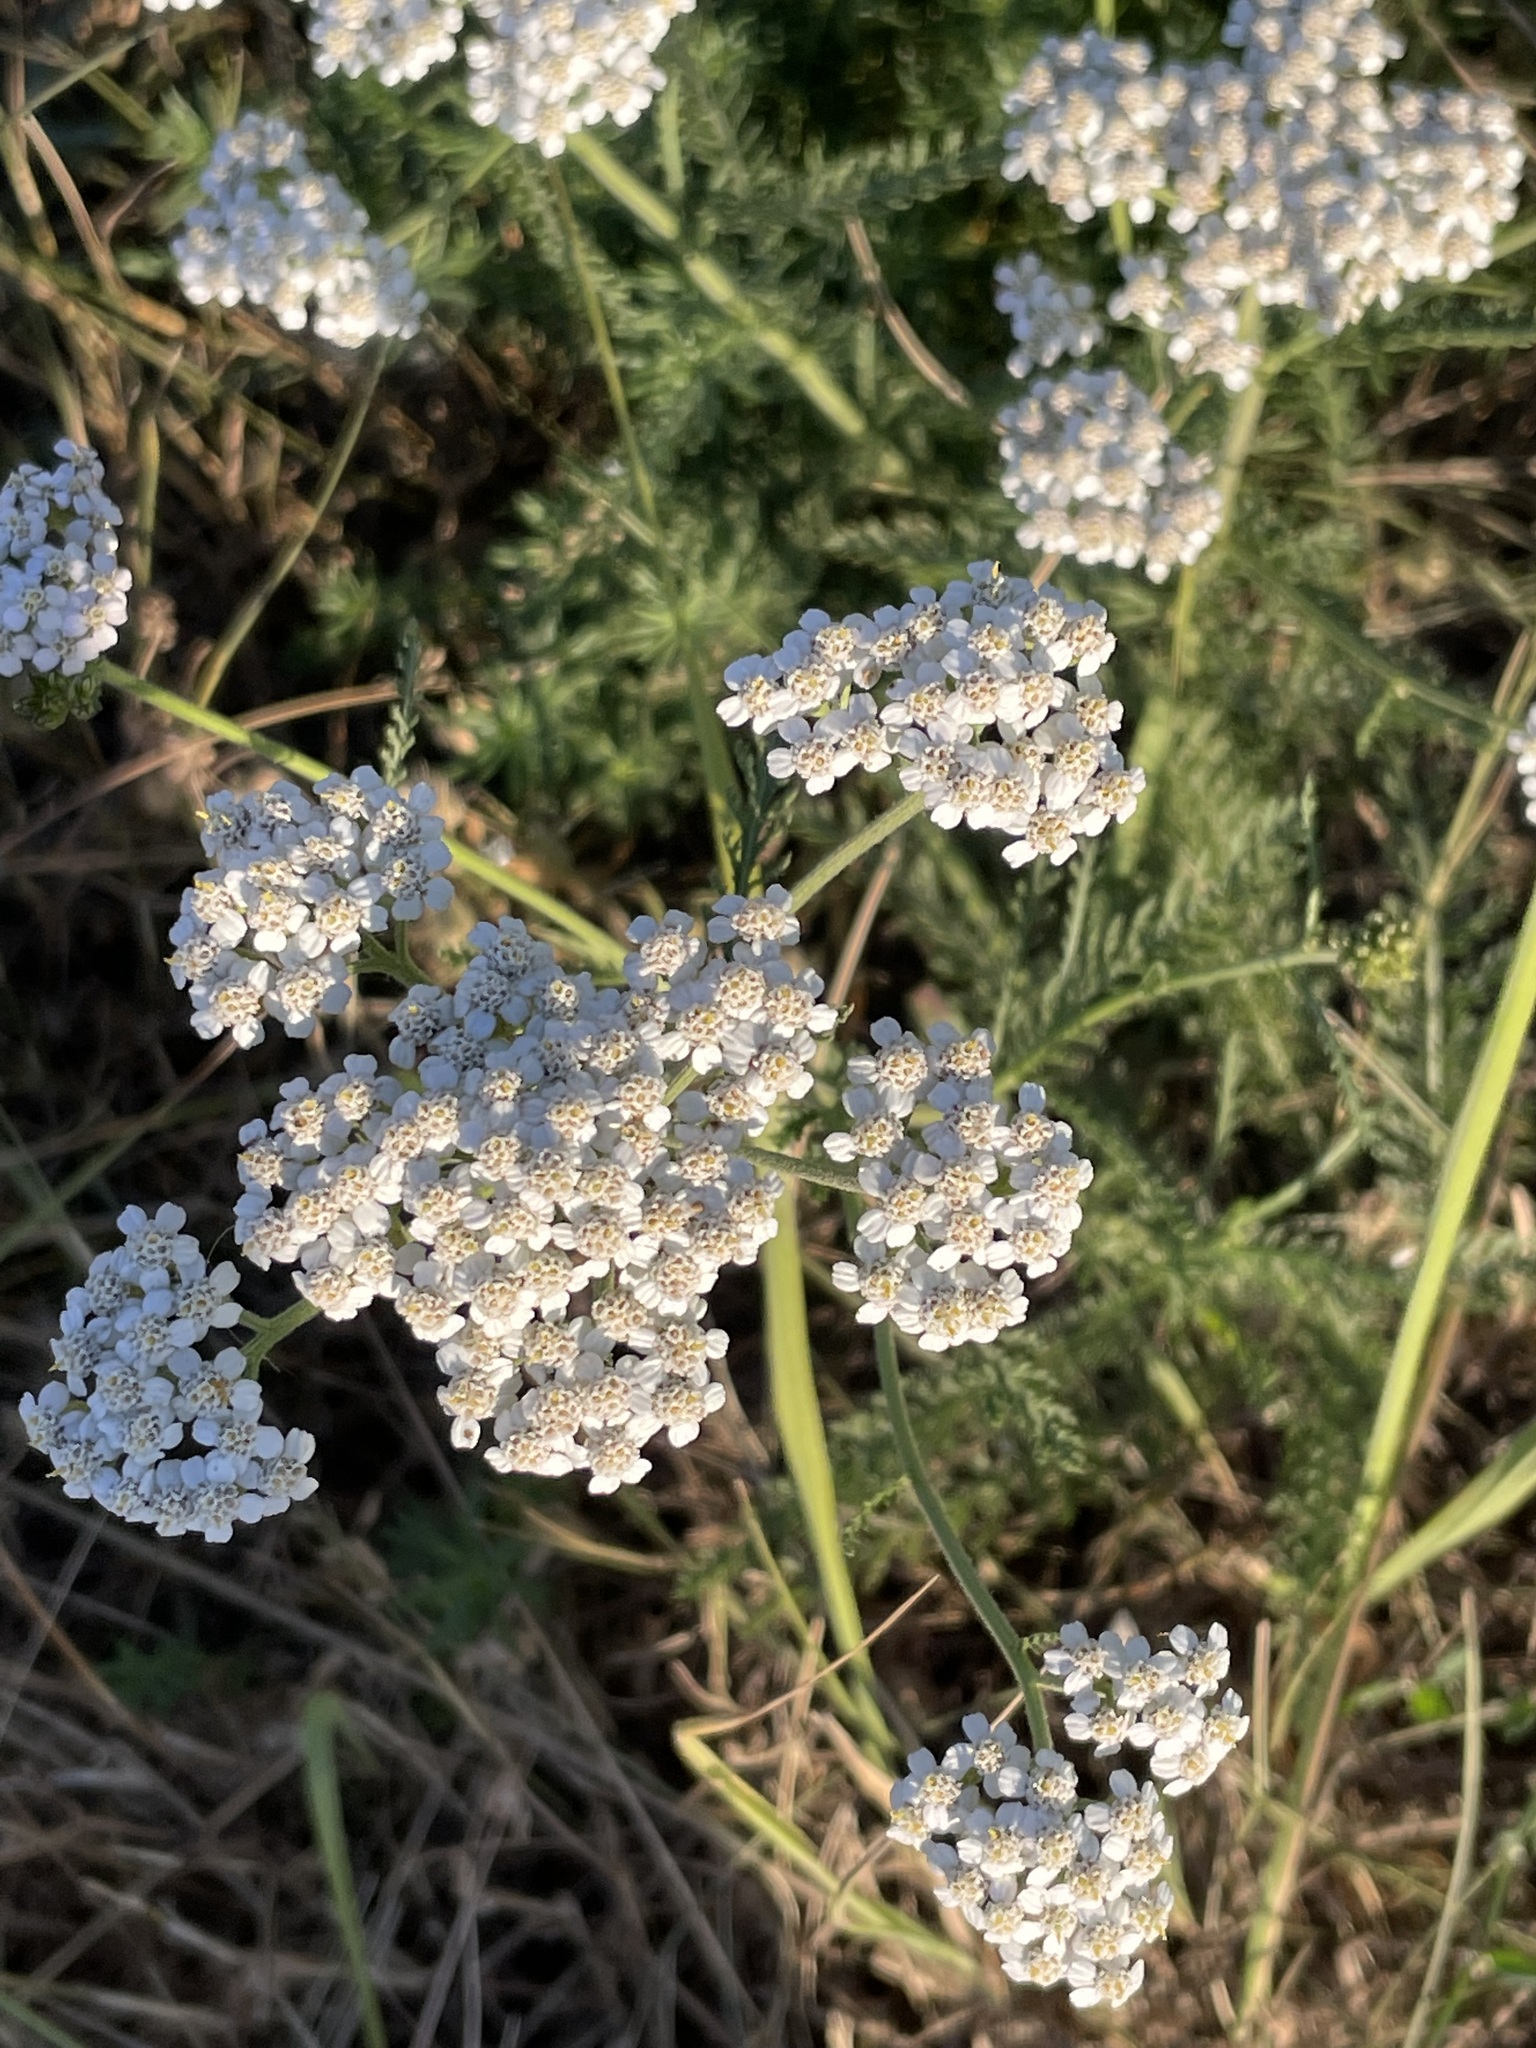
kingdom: Plantae
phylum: Tracheophyta
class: Magnoliopsida
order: Asterales
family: Asteraceae
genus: Achillea
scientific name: Achillea millefolium
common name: Yarrow
